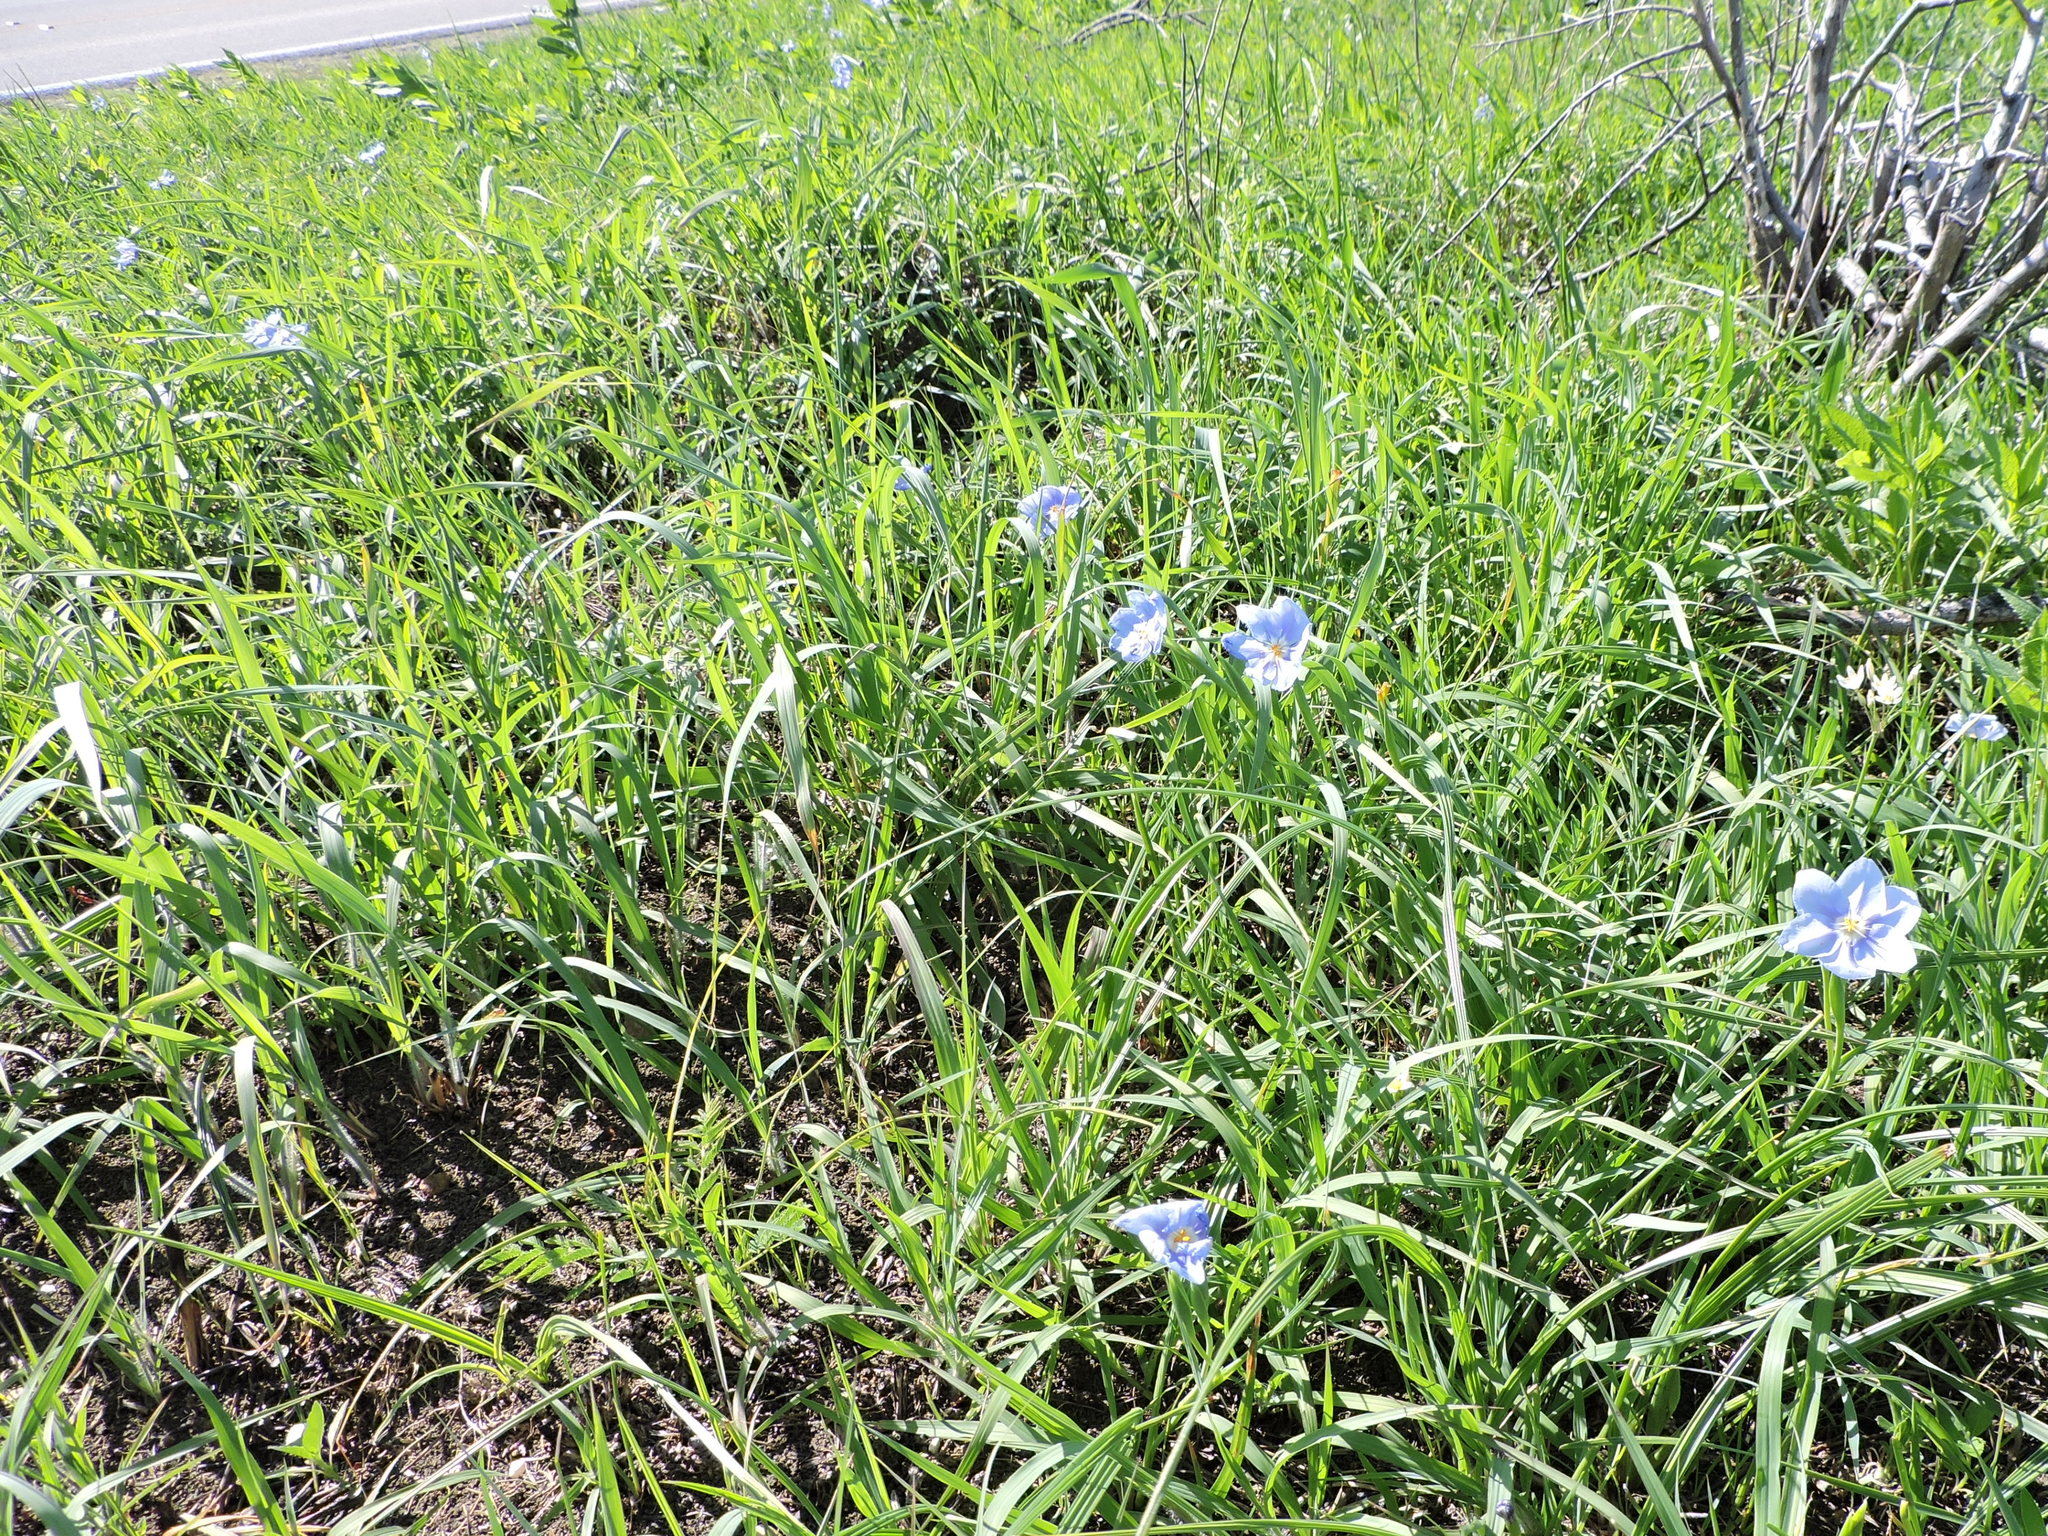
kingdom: Plantae
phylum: Tracheophyta
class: Liliopsida
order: Asparagales
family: Iridaceae
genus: Nemastylis
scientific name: Nemastylis geminiflora
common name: Prairie celestial
